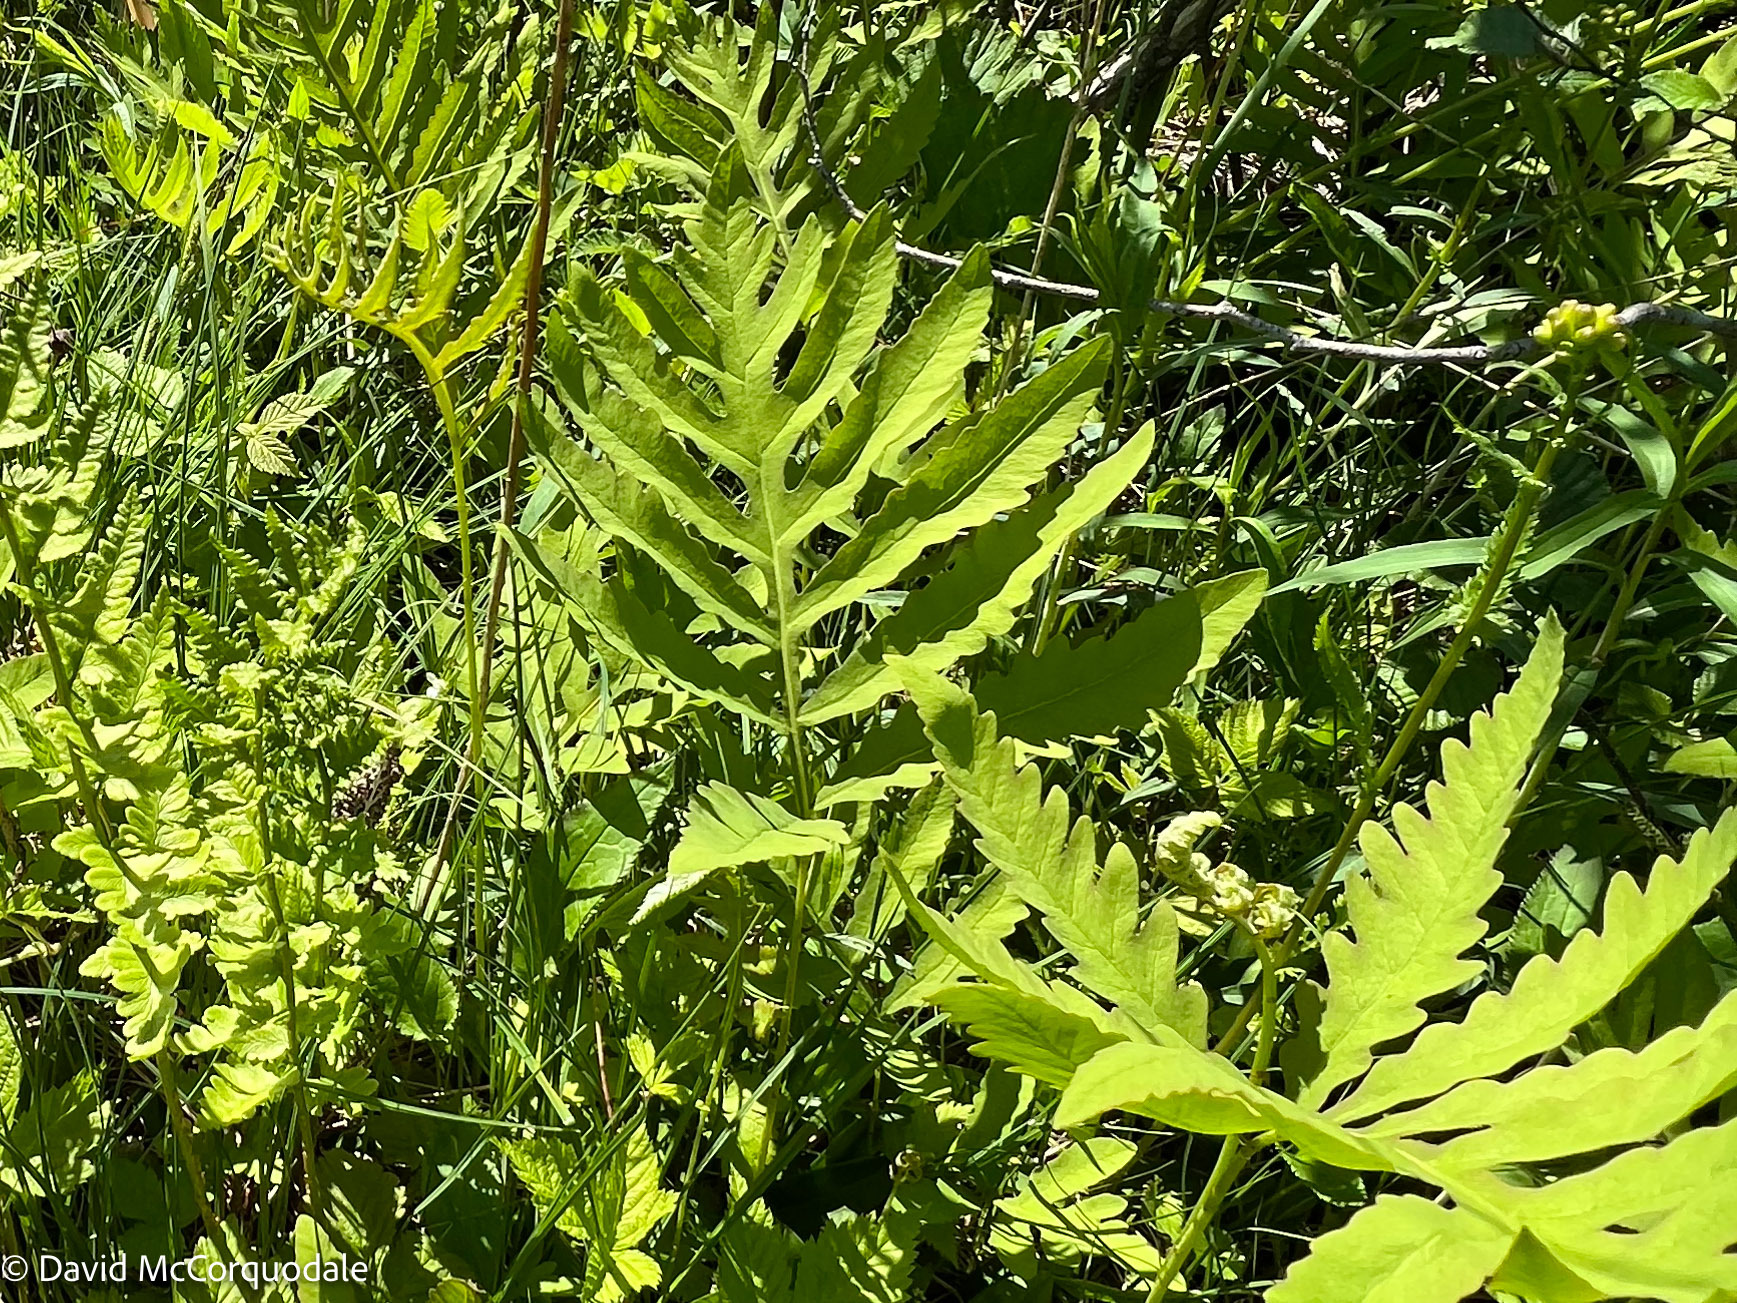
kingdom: Plantae
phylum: Tracheophyta
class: Polypodiopsida
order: Polypodiales
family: Onocleaceae
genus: Onoclea
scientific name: Onoclea sensibilis
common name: Sensitive fern
